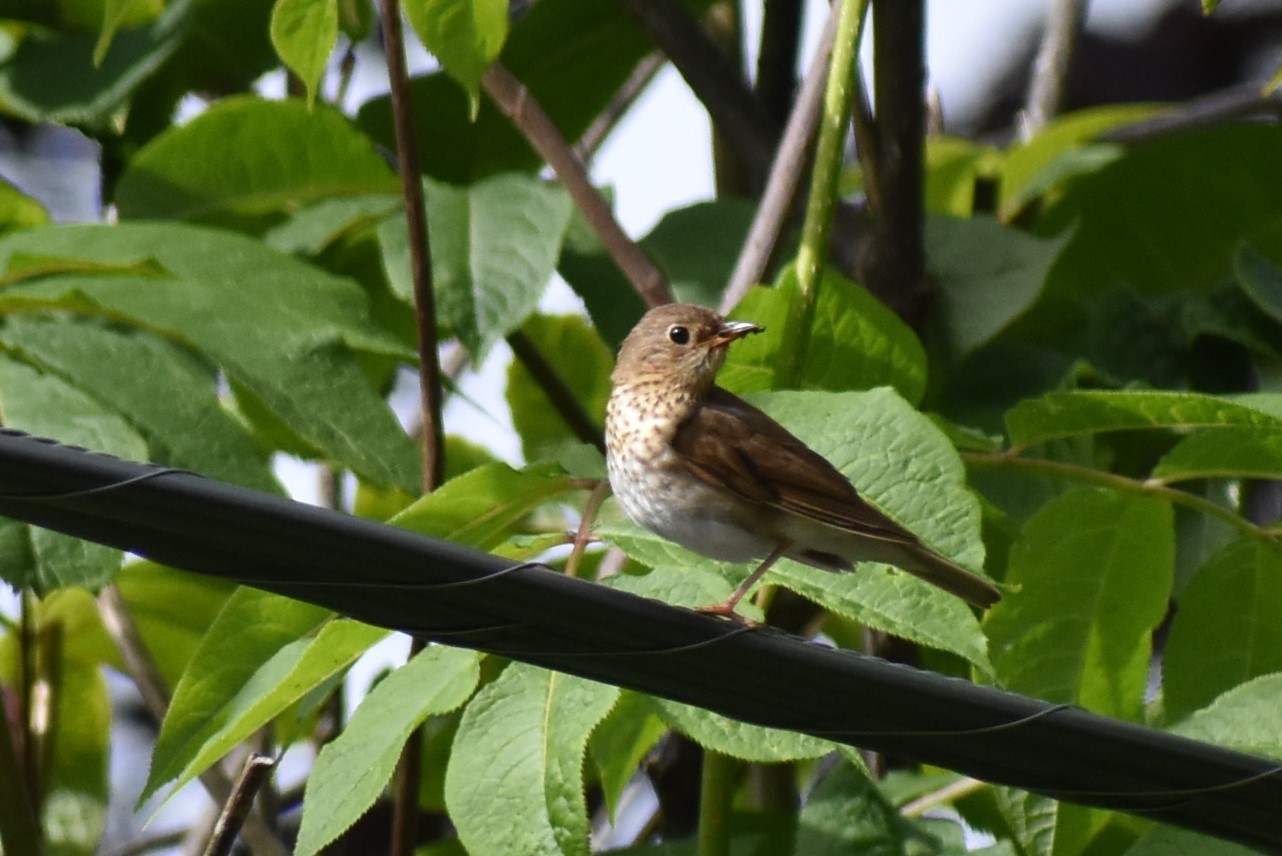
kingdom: Animalia
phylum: Chordata
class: Aves
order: Passeriformes
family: Turdidae
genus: Catharus
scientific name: Catharus ustulatus
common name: Swainson's thrush
